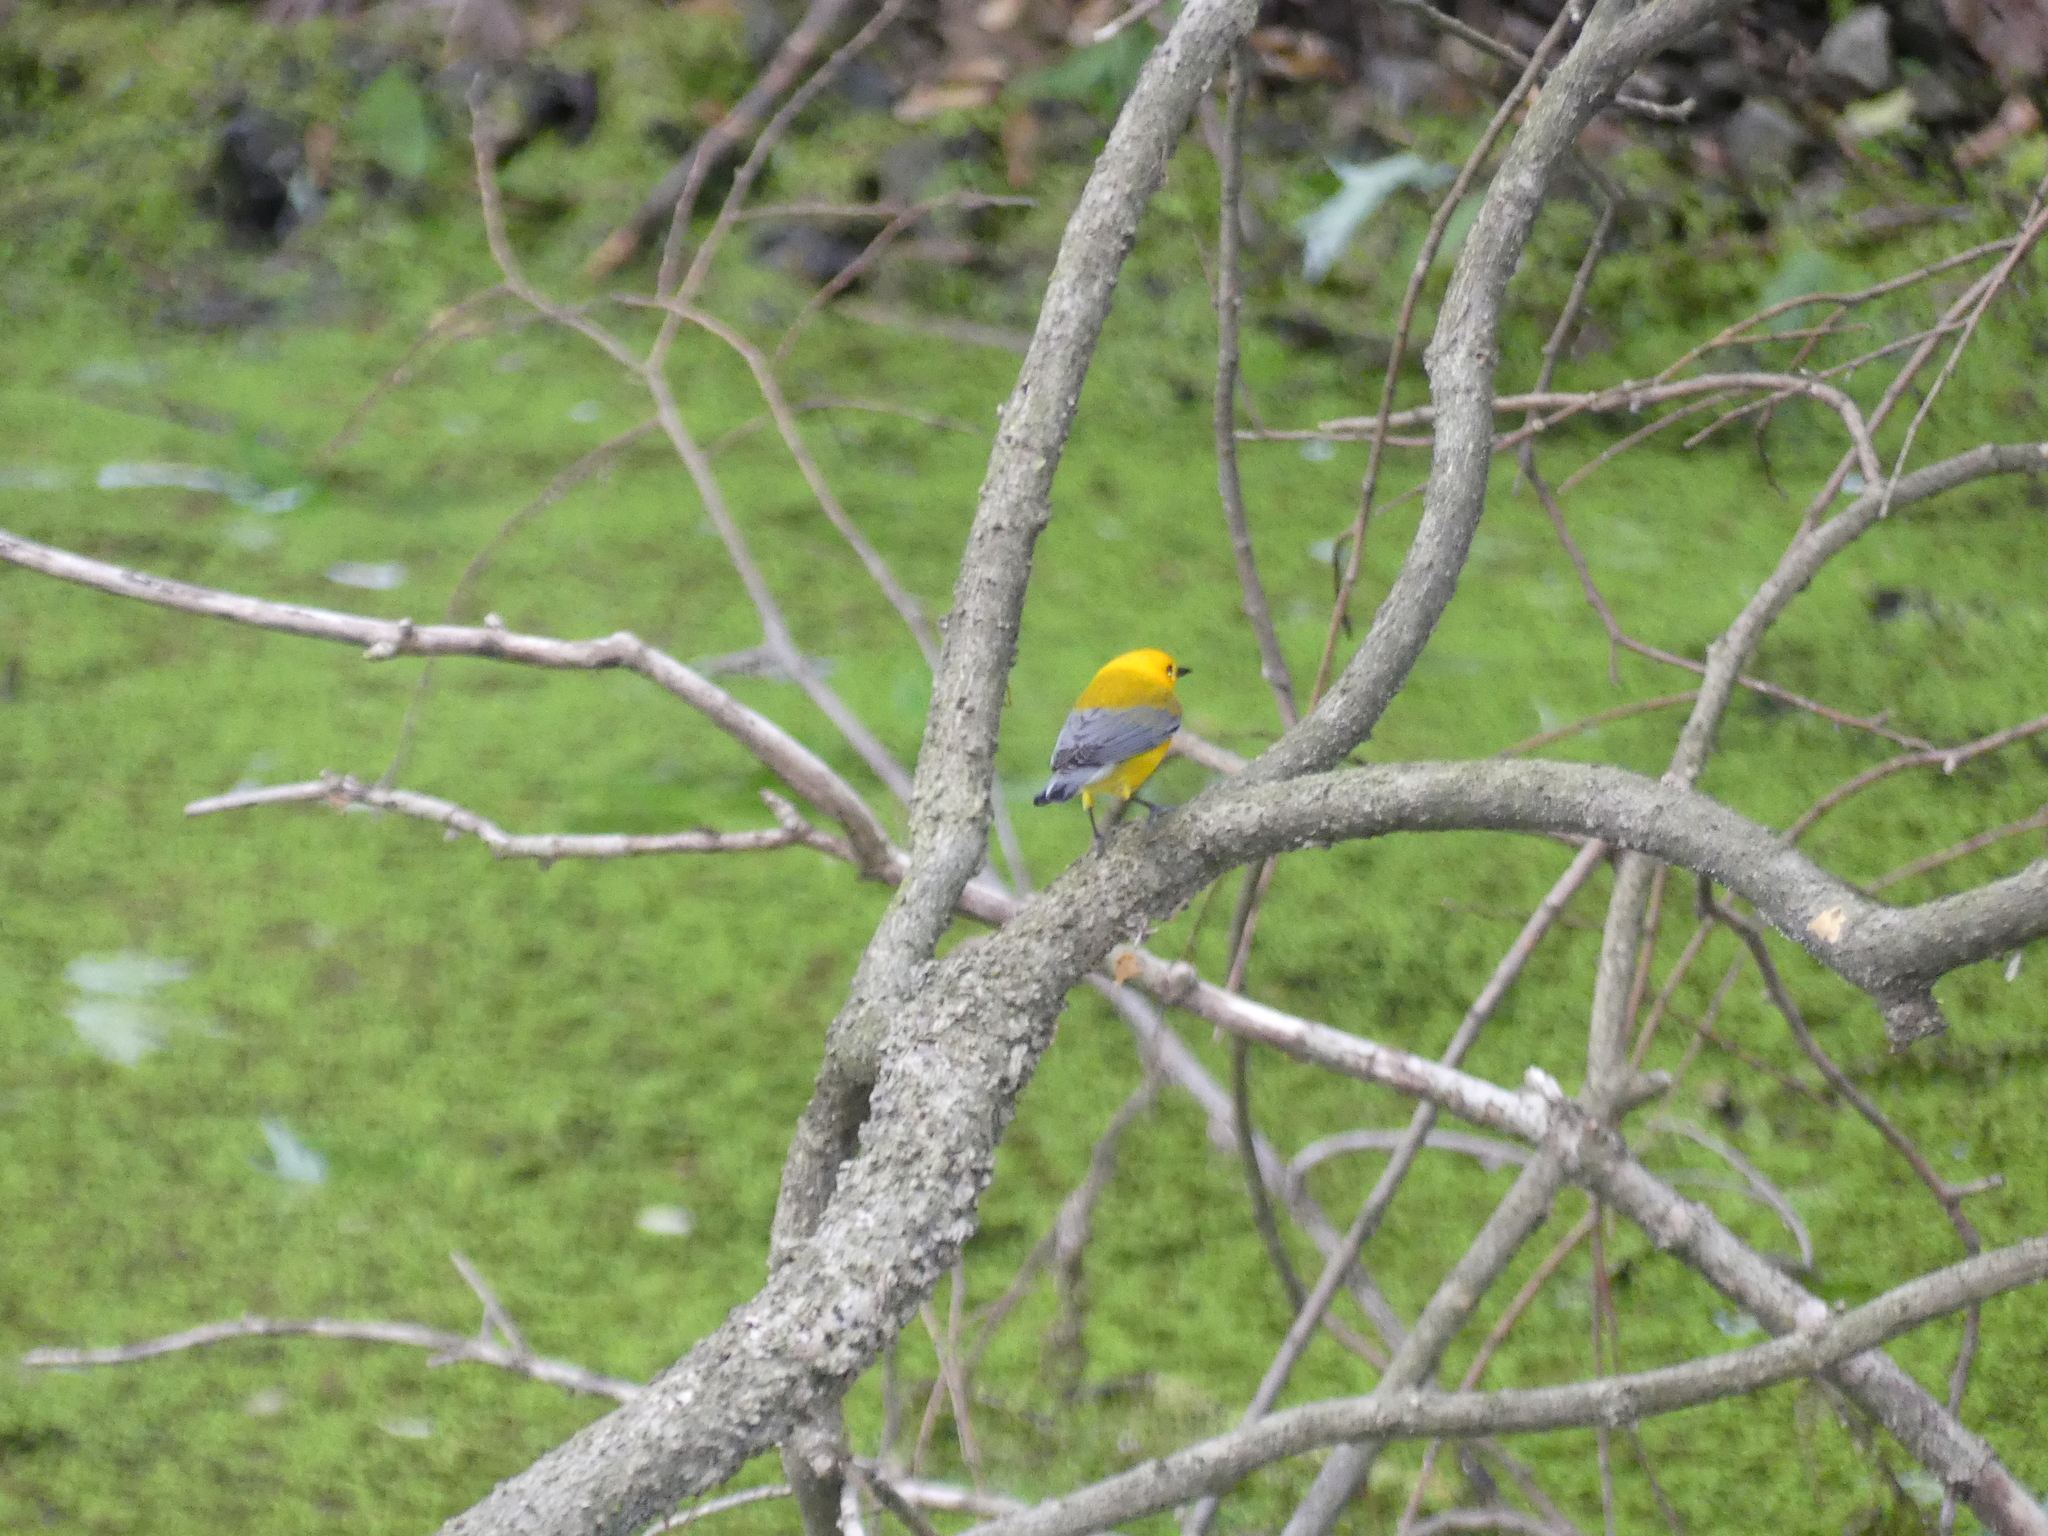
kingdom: Animalia
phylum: Chordata
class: Aves
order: Passeriformes
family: Parulidae
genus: Protonotaria
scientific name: Protonotaria citrea
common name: Prothonotary warbler
